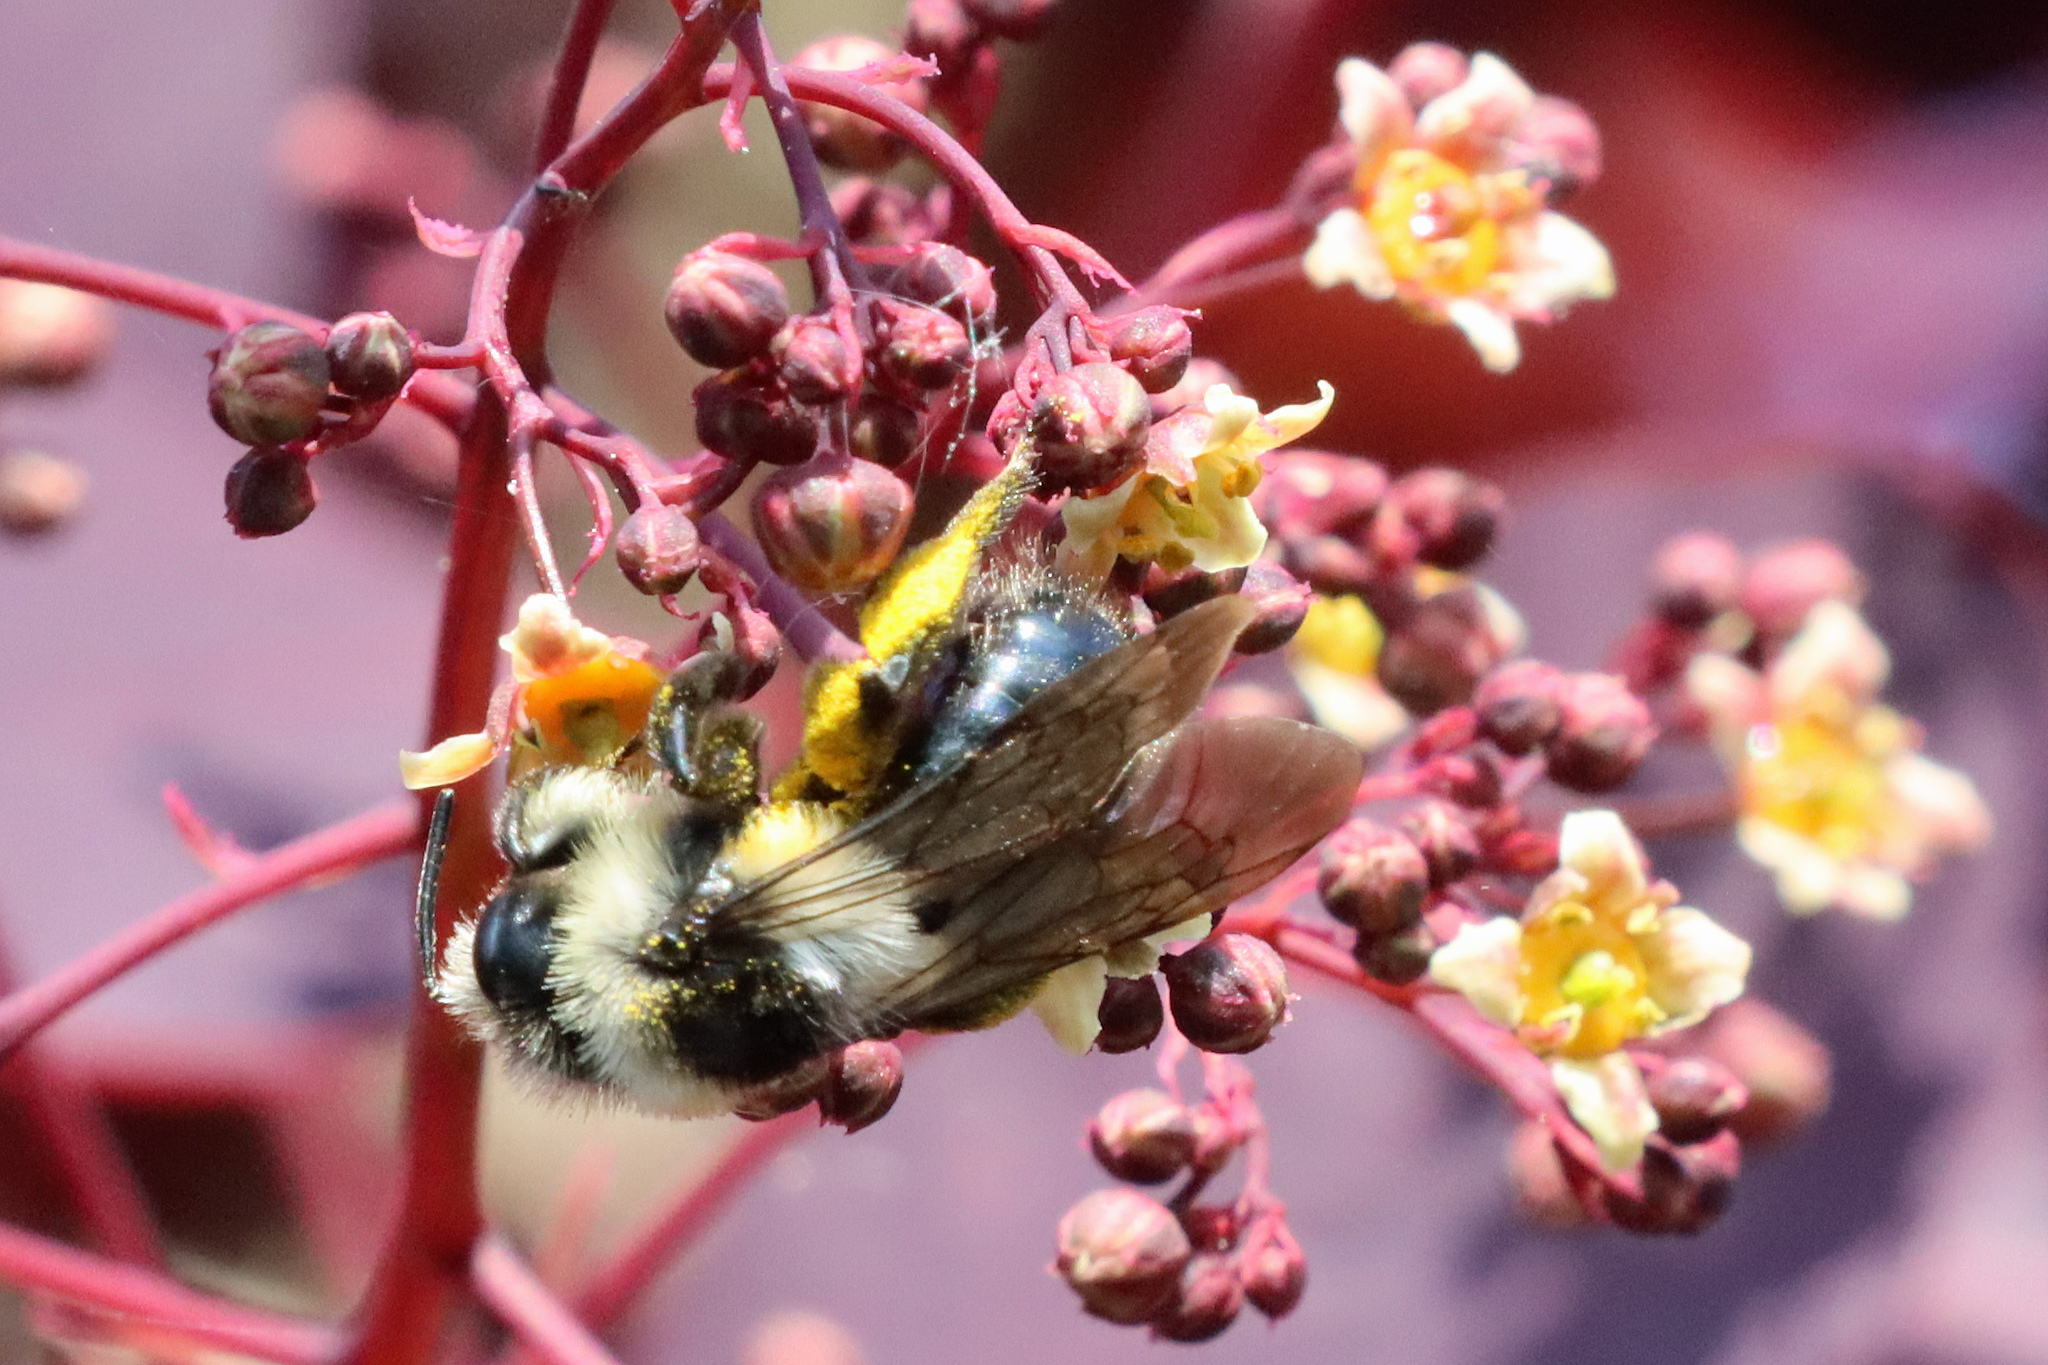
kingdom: Animalia
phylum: Arthropoda
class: Insecta
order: Hymenoptera
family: Andrenidae
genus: Andrena
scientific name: Andrena cineraria
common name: Ashy mining bee
